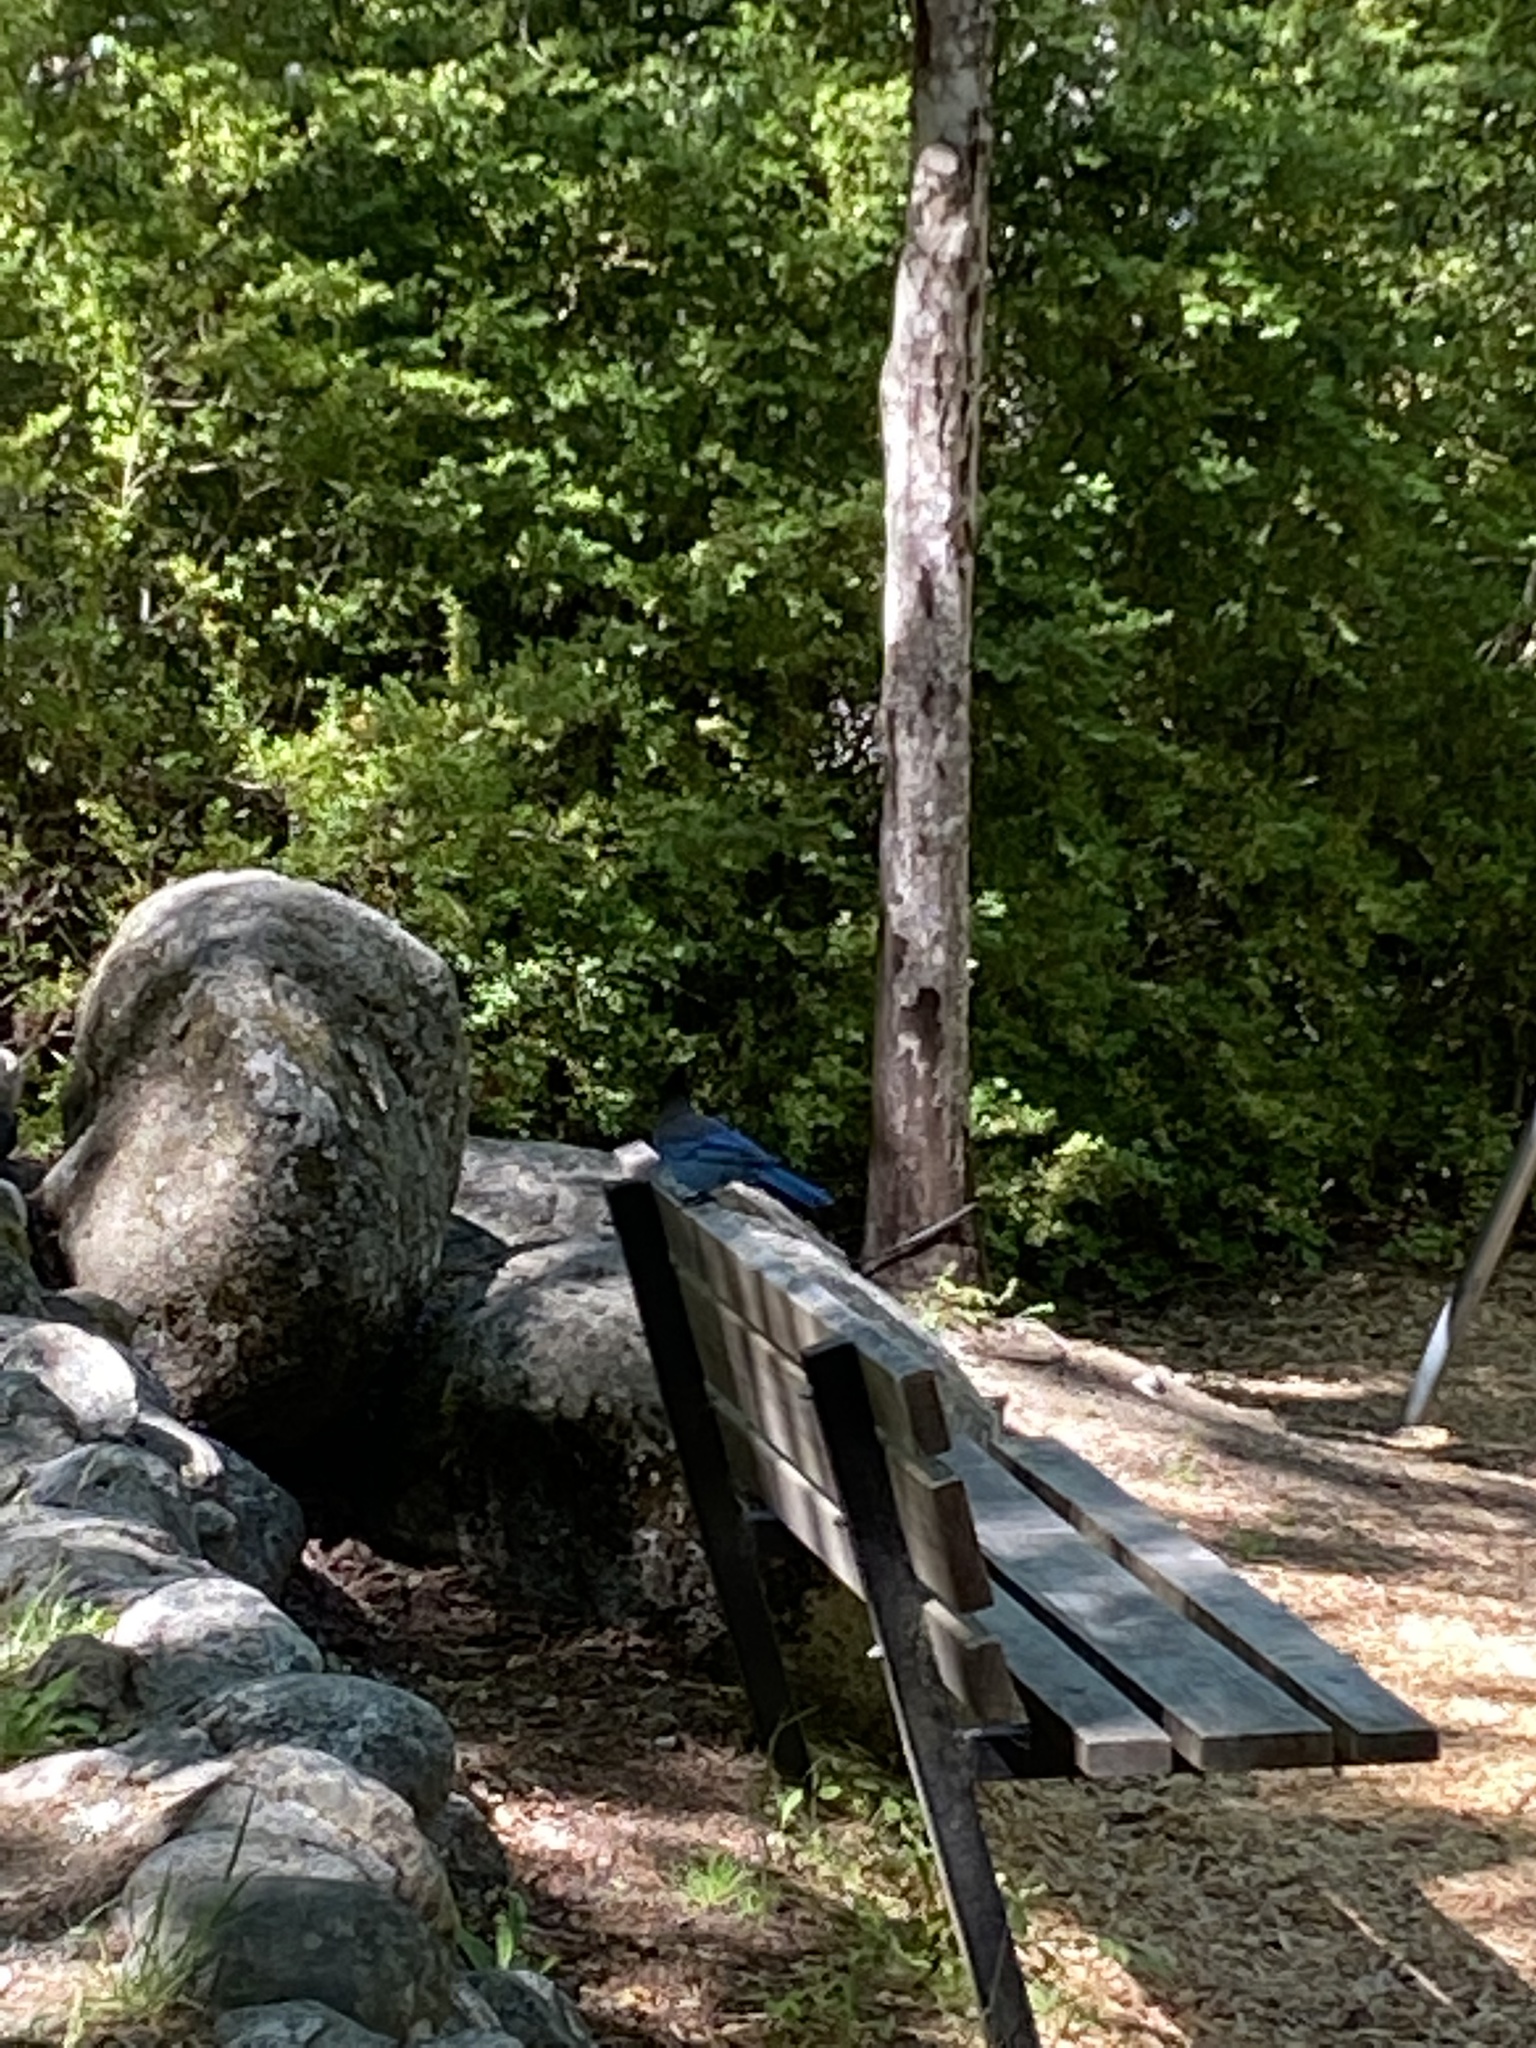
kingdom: Animalia
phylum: Chordata
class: Aves
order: Passeriformes
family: Corvidae
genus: Cyanocitta
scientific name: Cyanocitta stelleri
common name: Steller's jay
